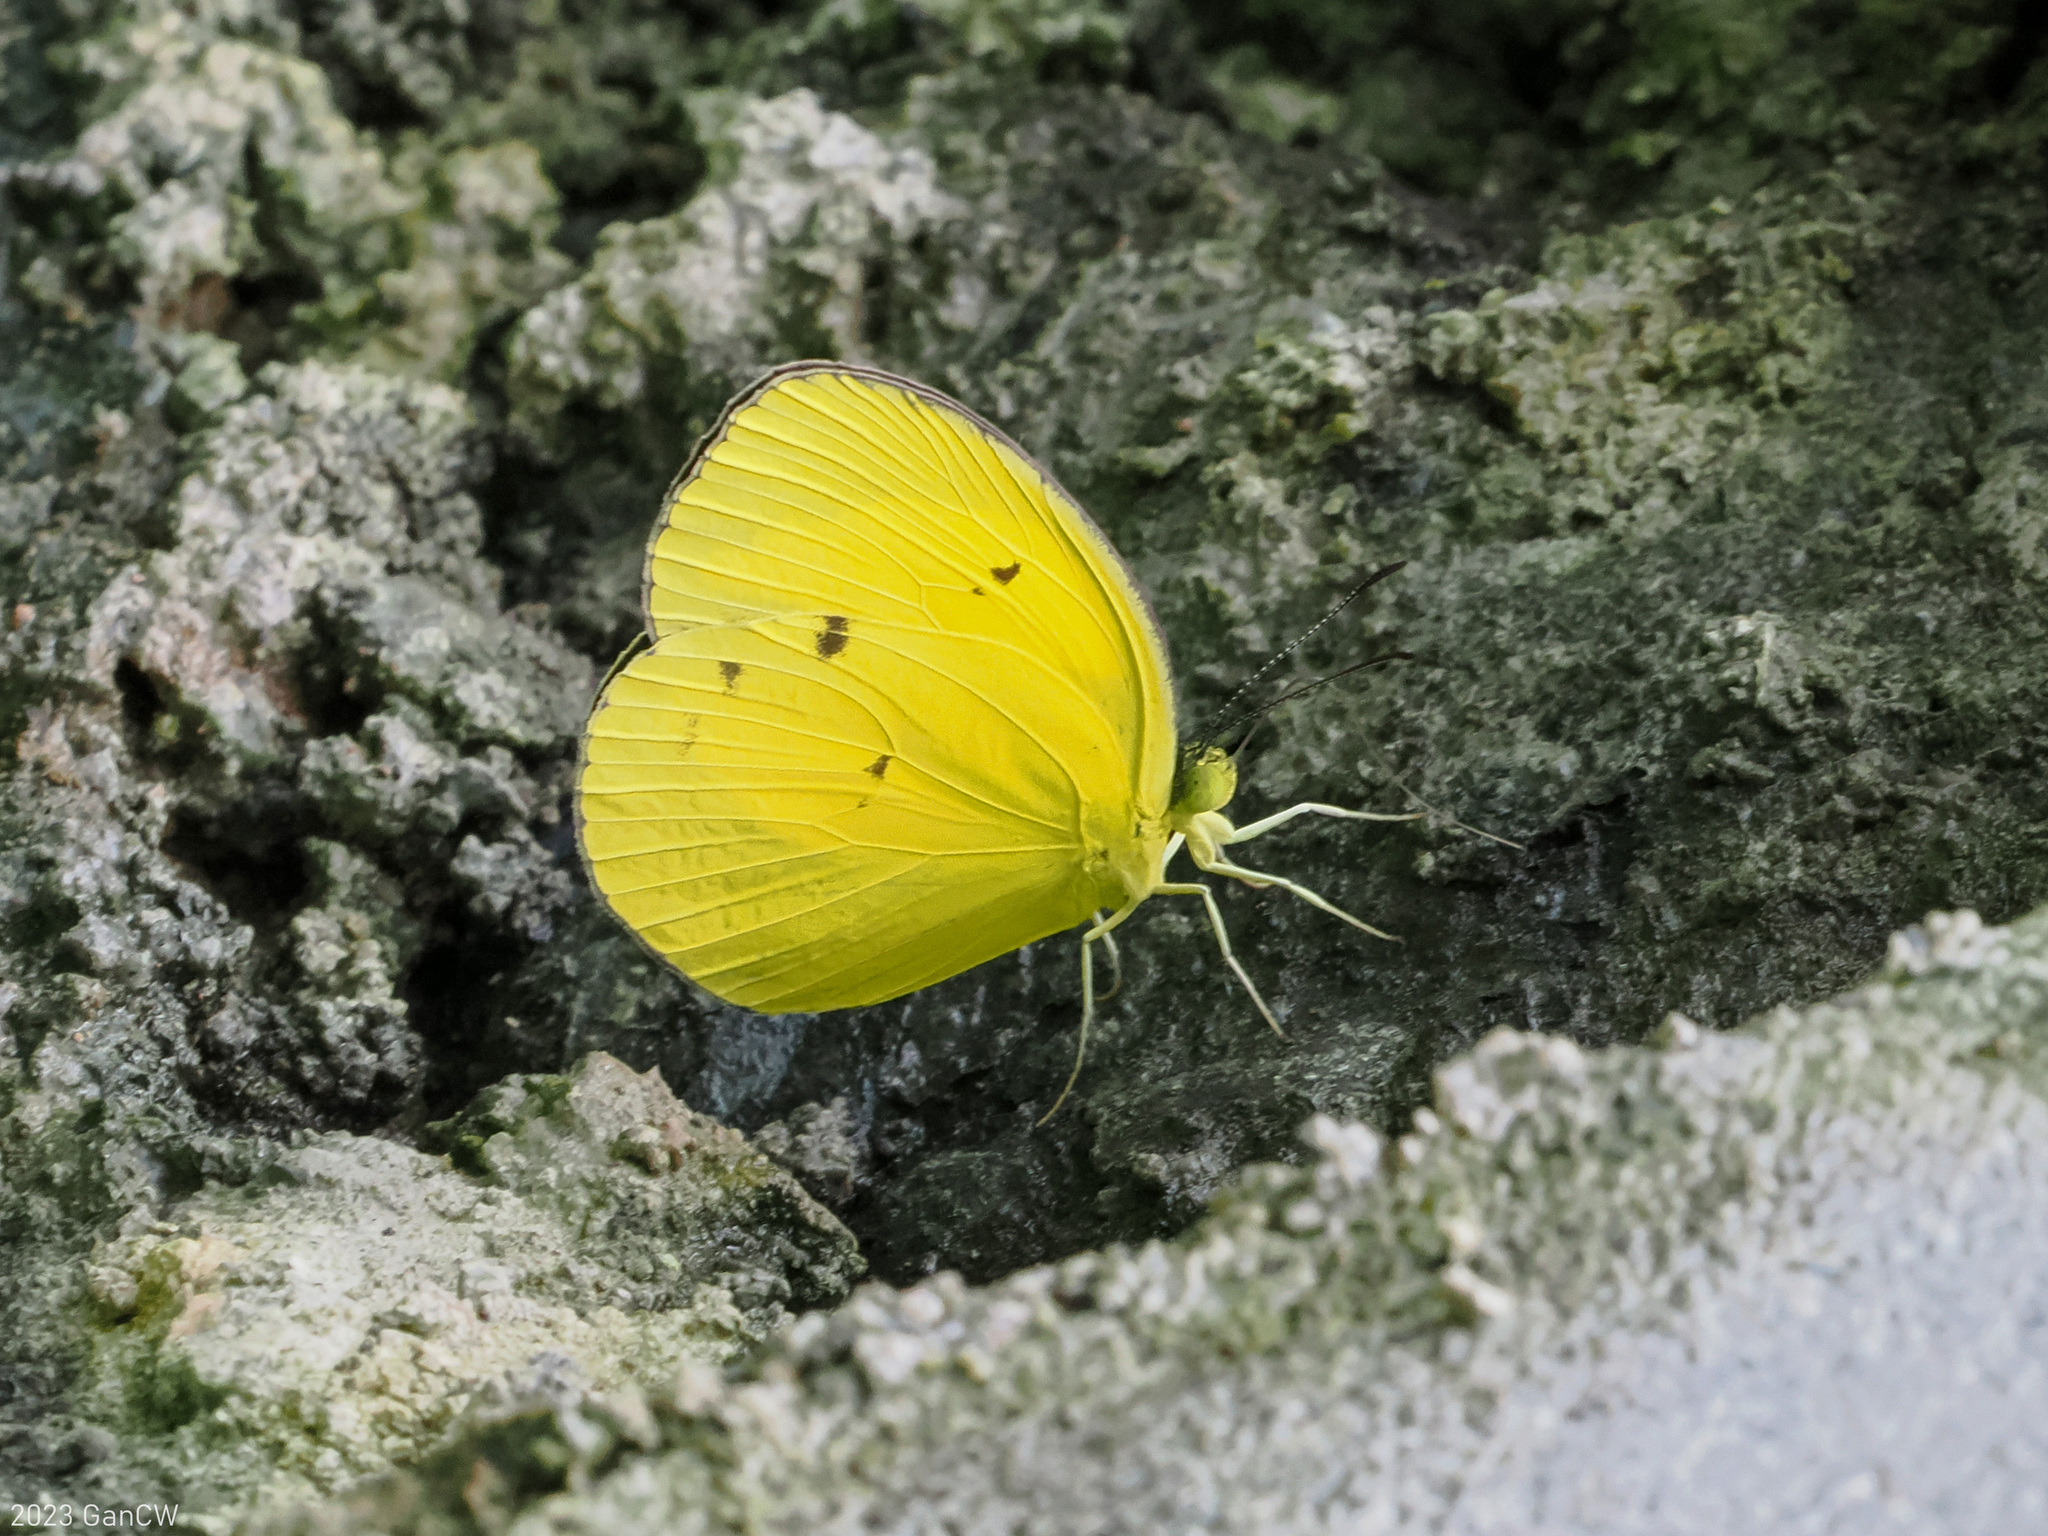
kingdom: Animalia
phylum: Arthropoda
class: Insecta
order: Lepidoptera
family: Pieridae
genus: Eurema
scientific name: Eurema tominia
